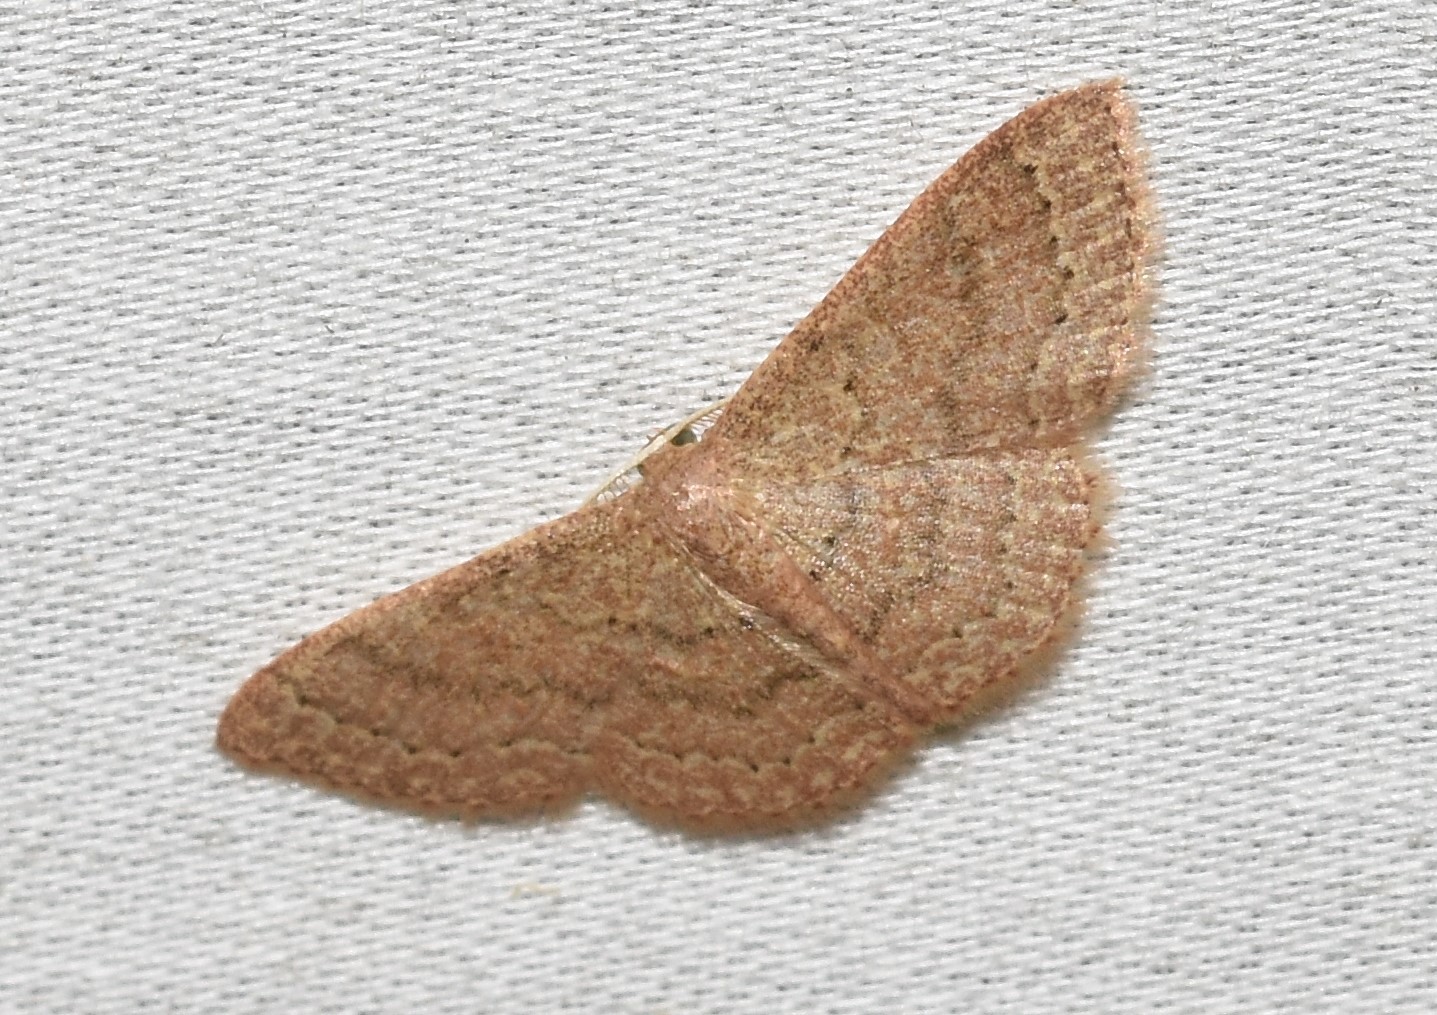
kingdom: Animalia
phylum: Arthropoda
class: Insecta
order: Lepidoptera
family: Geometridae
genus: Pleuroprucha
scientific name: Pleuroprucha insulsaria
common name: Common tan wave
